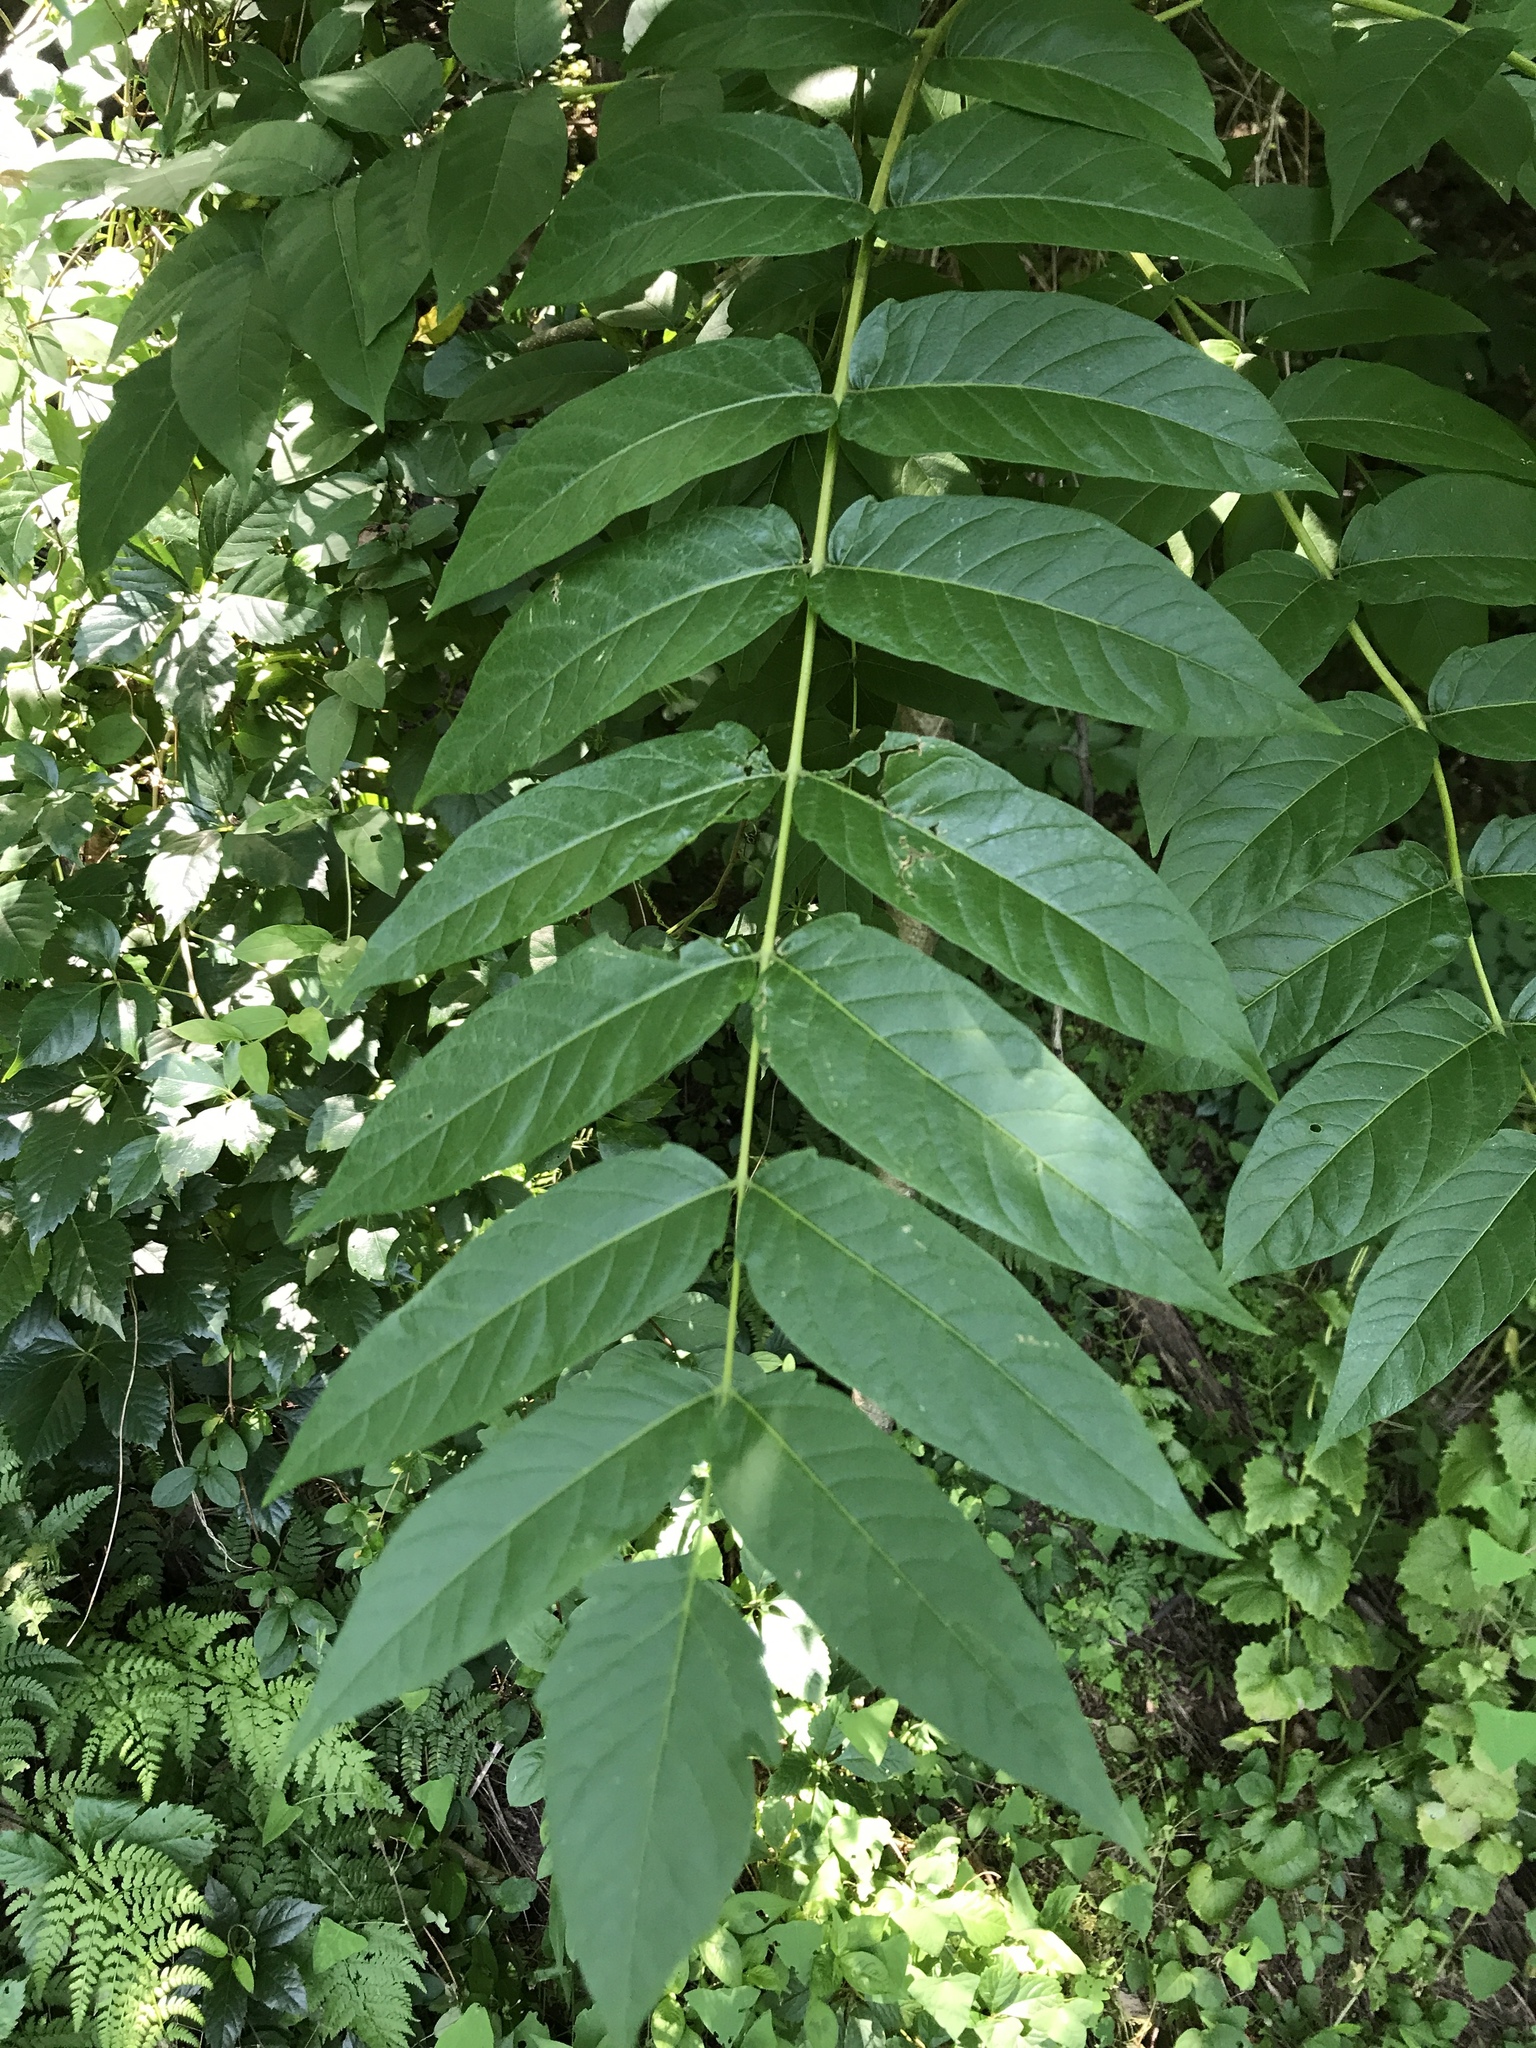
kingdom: Plantae
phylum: Tracheophyta
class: Magnoliopsida
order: Sapindales
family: Simaroubaceae
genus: Ailanthus
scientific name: Ailanthus altissima
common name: Tree-of-heaven
